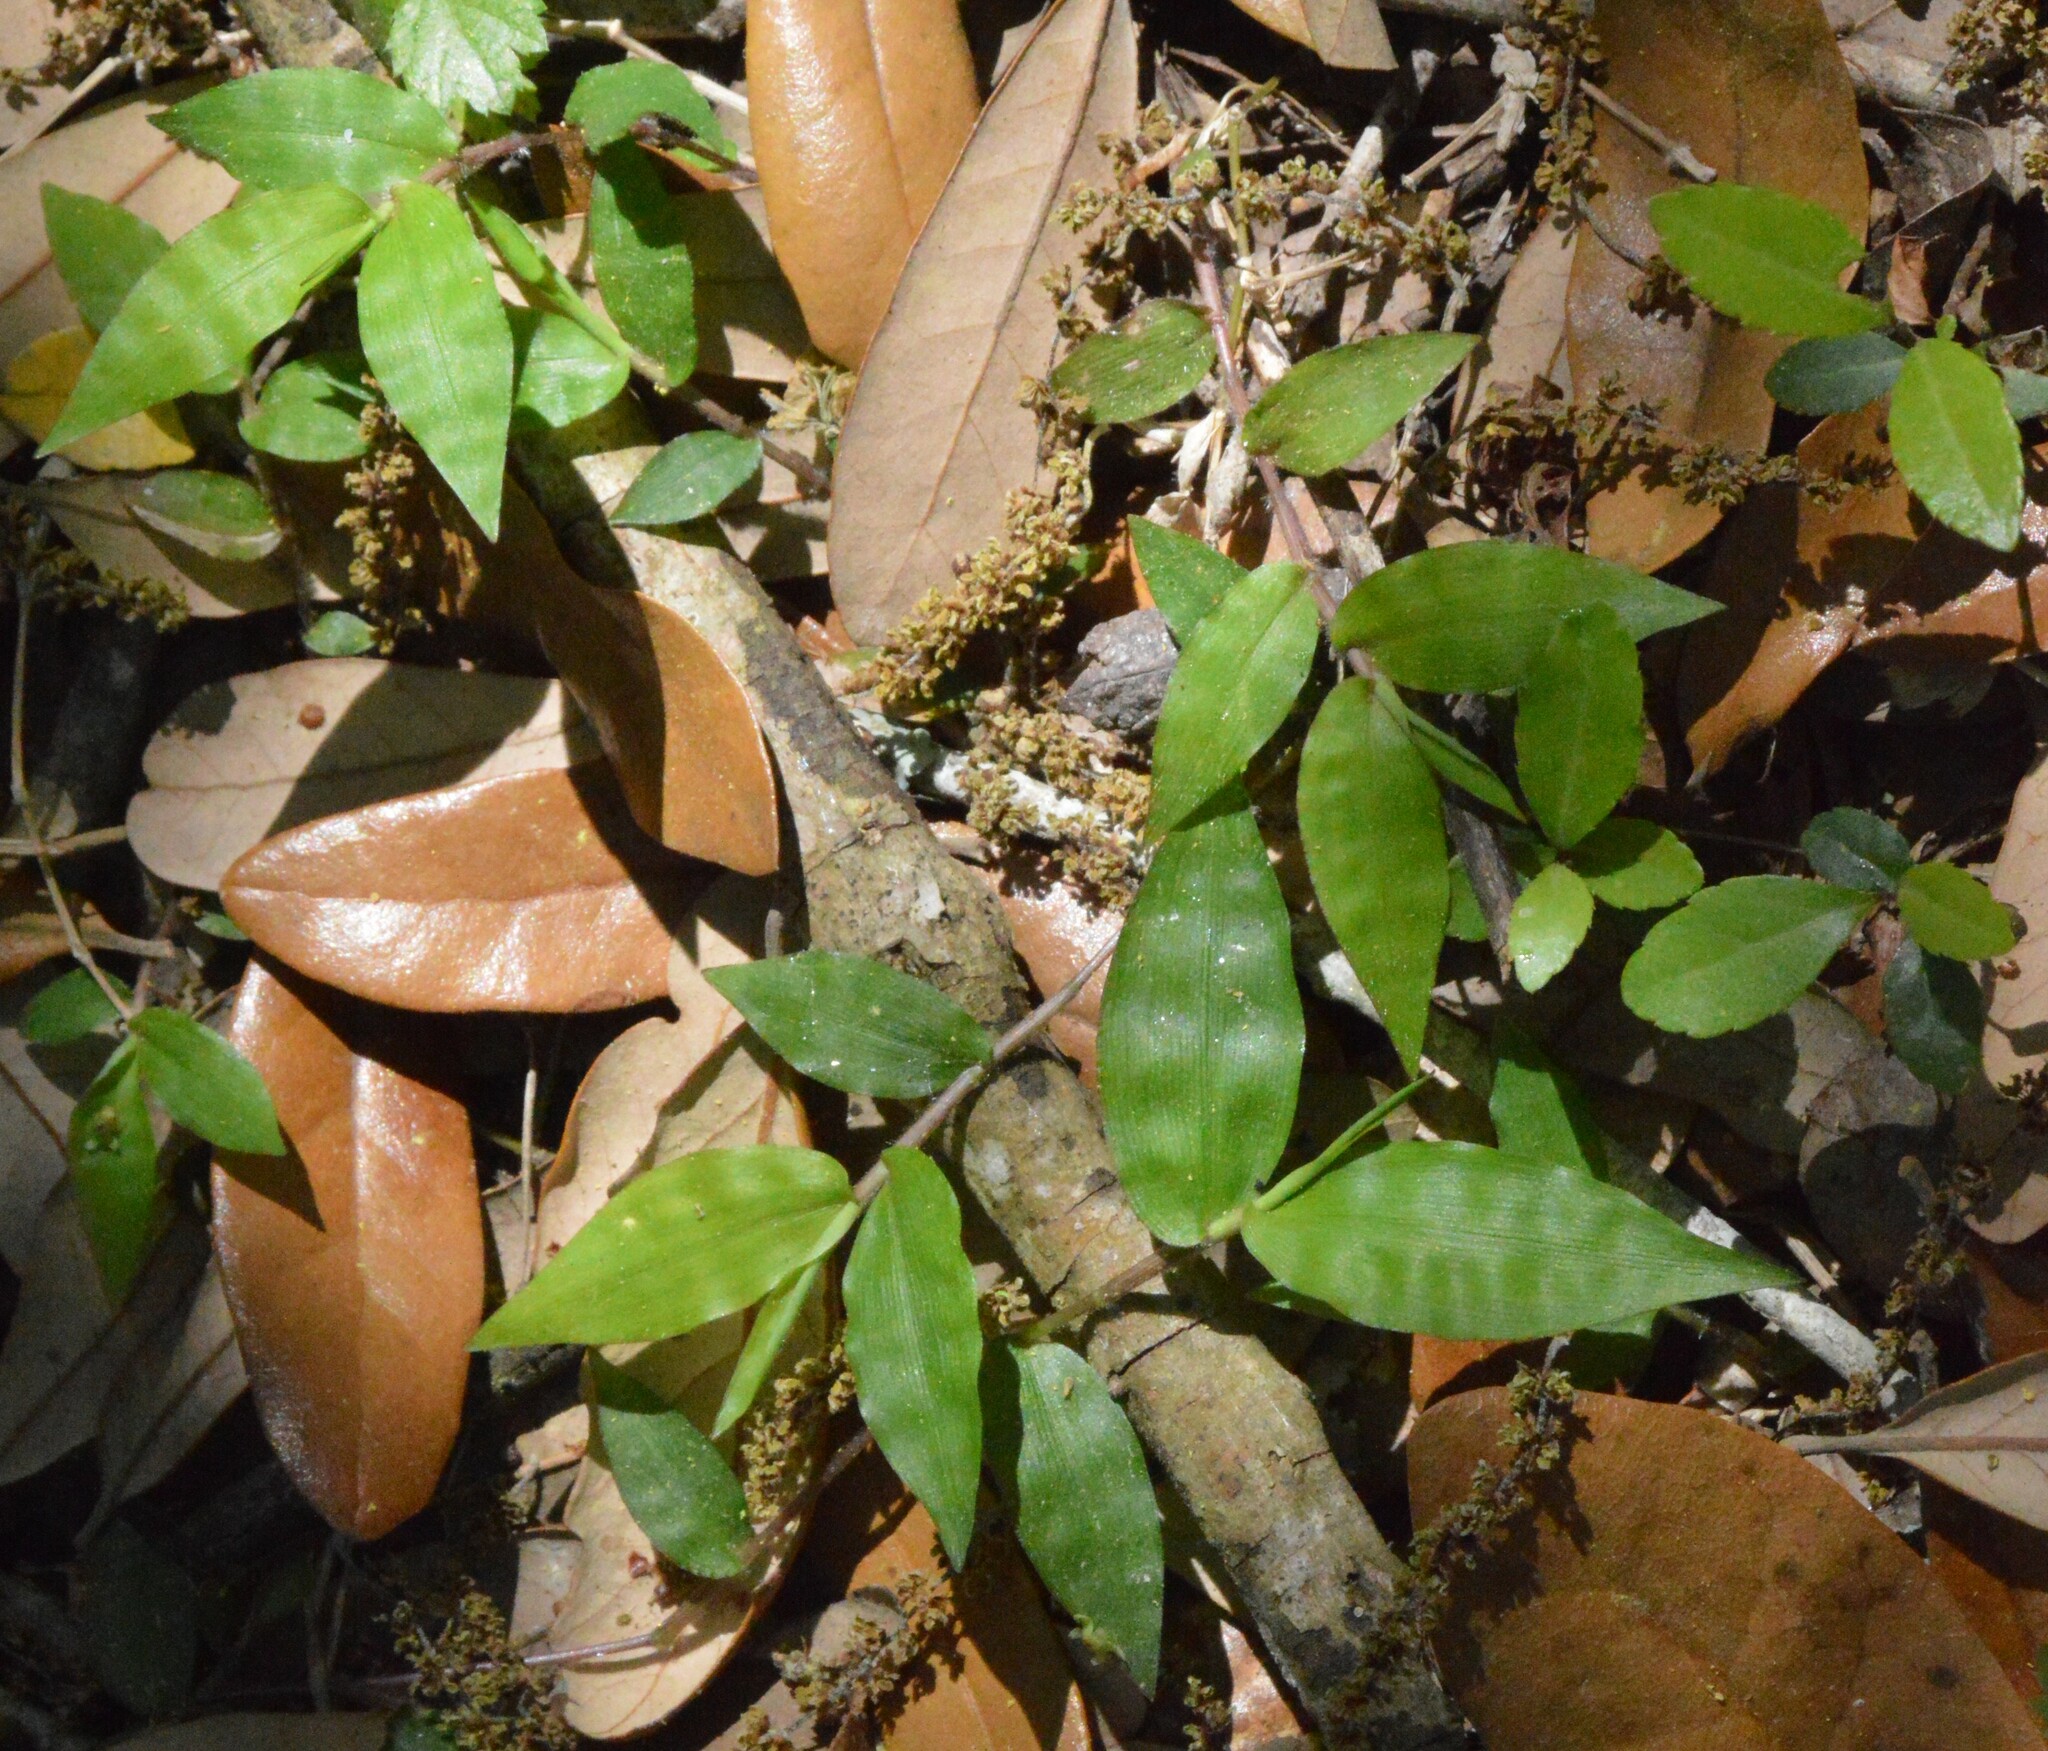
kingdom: Plantae
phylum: Tracheophyta
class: Liliopsida
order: Poales
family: Poaceae
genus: Oplismenus
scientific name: Oplismenus hirtellus
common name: Basketgrass
